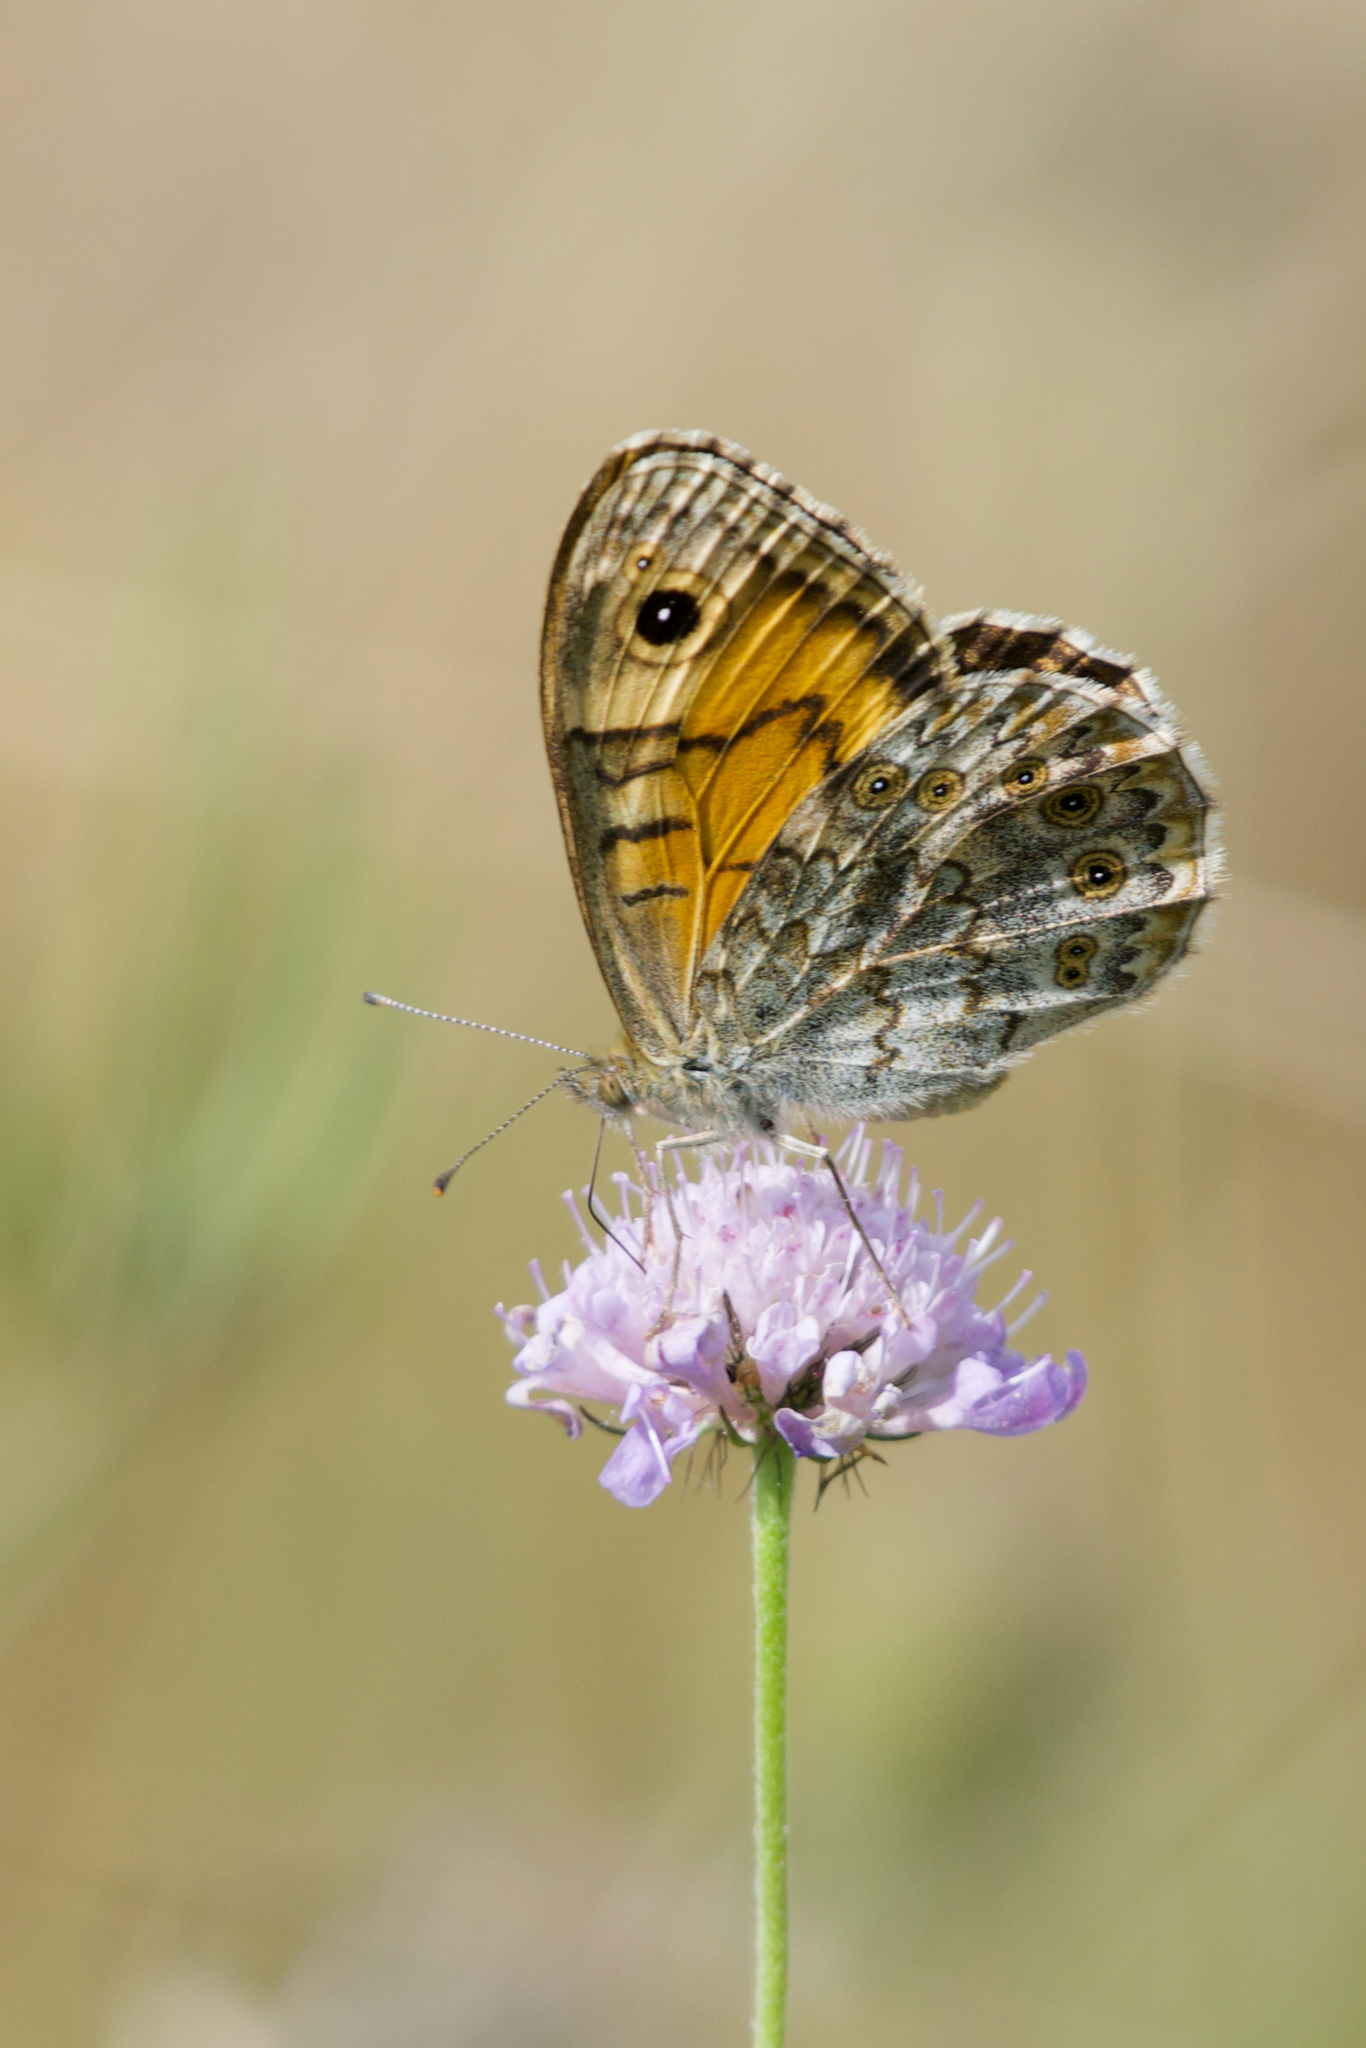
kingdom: Animalia
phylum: Arthropoda
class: Insecta
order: Lepidoptera
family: Nymphalidae
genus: Pararge
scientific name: Pararge Lasiommata megera
